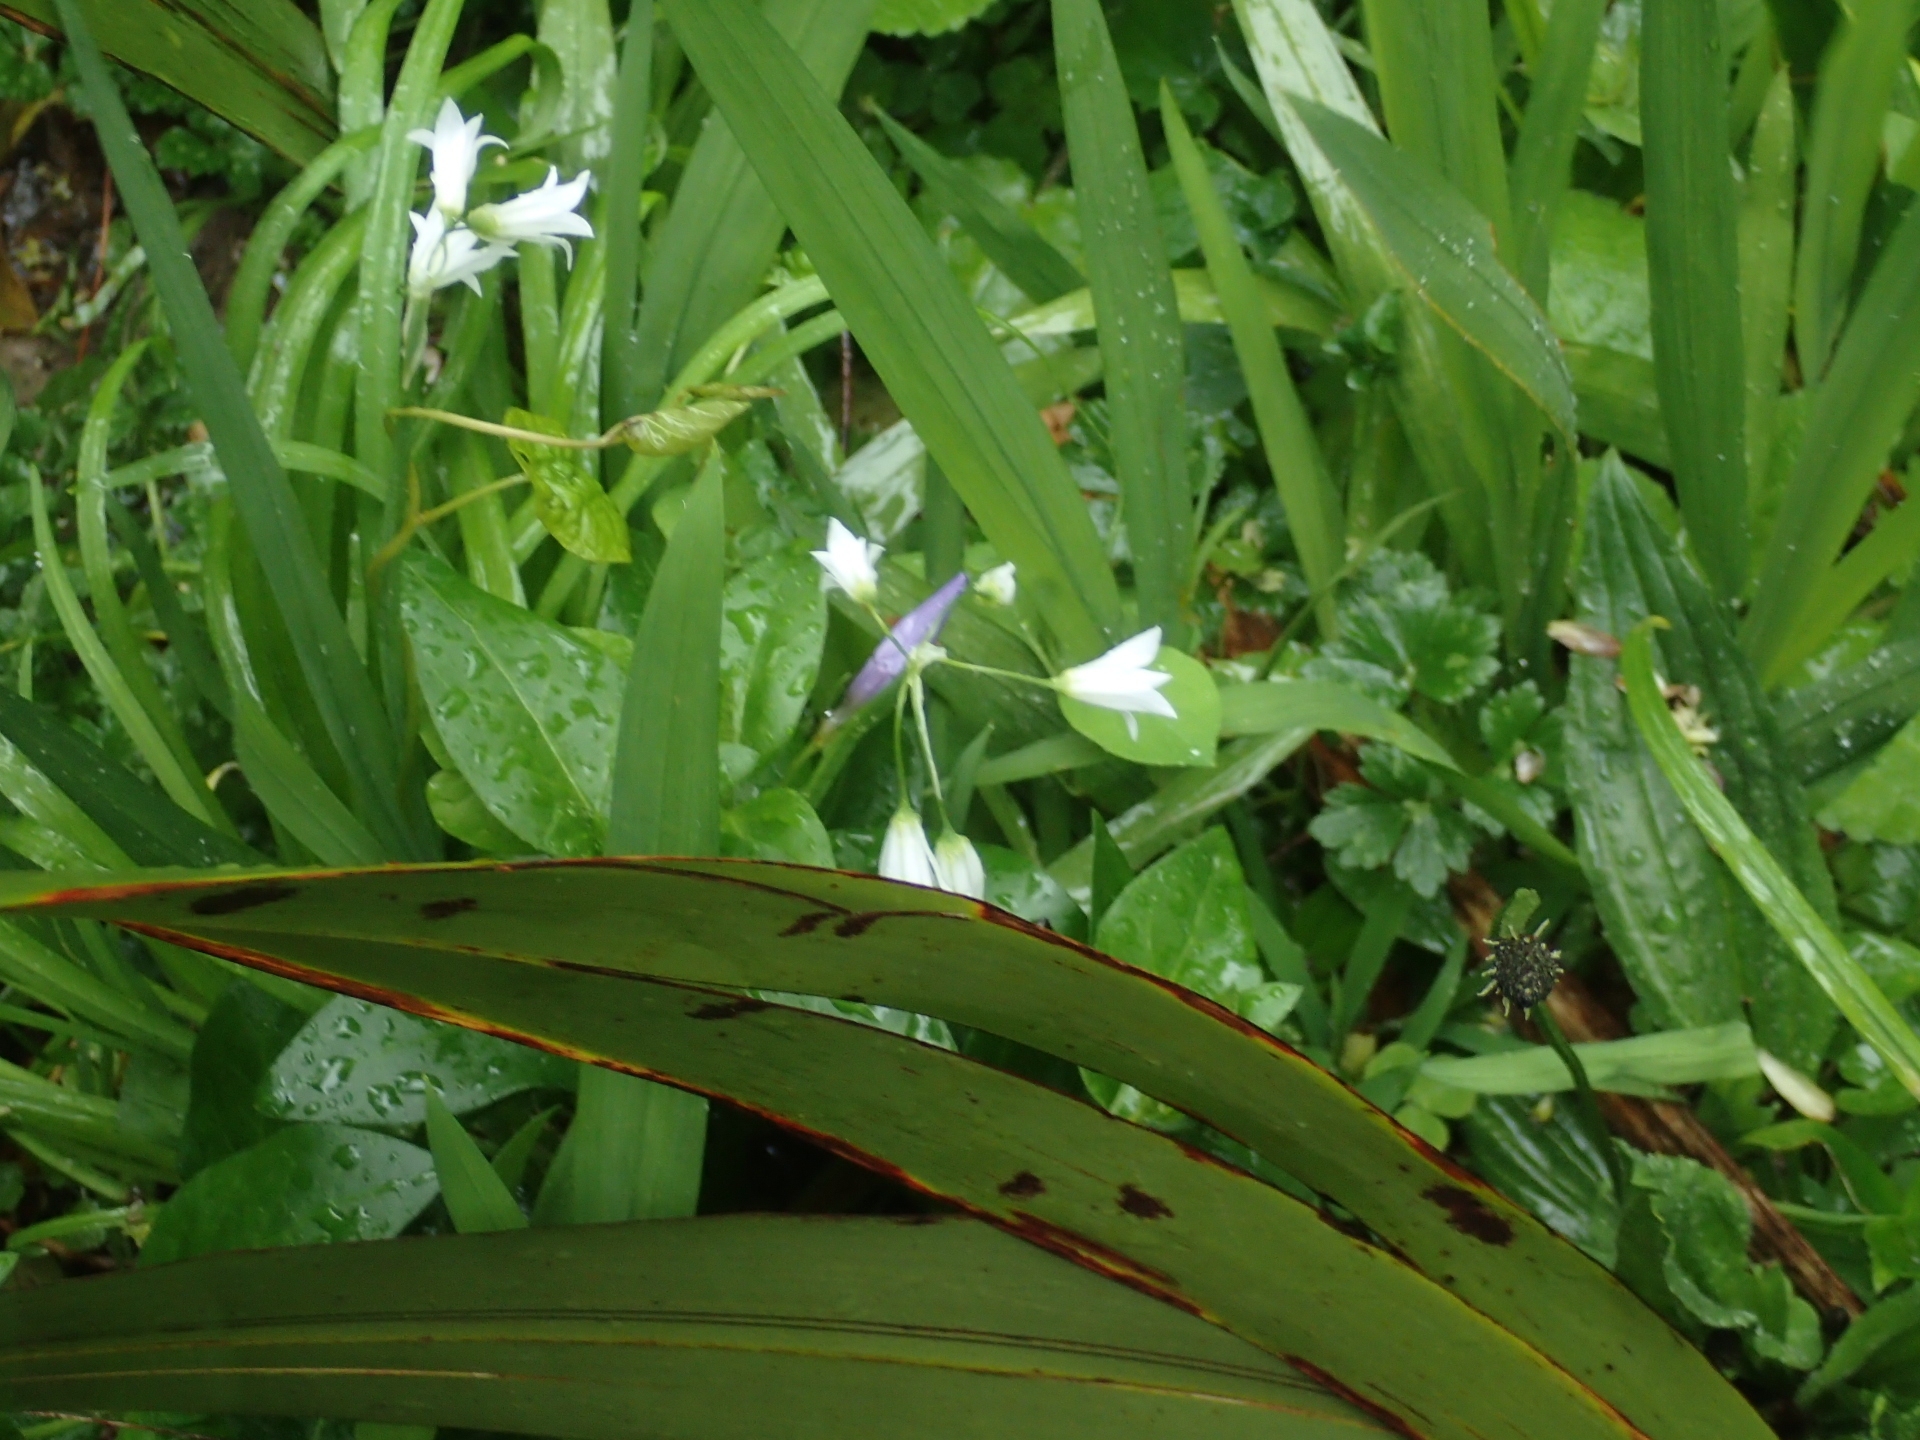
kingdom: Plantae
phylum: Tracheophyta
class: Liliopsida
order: Asparagales
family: Amaryllidaceae
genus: Allium
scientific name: Allium triquetrum
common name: Three-cornered garlic
